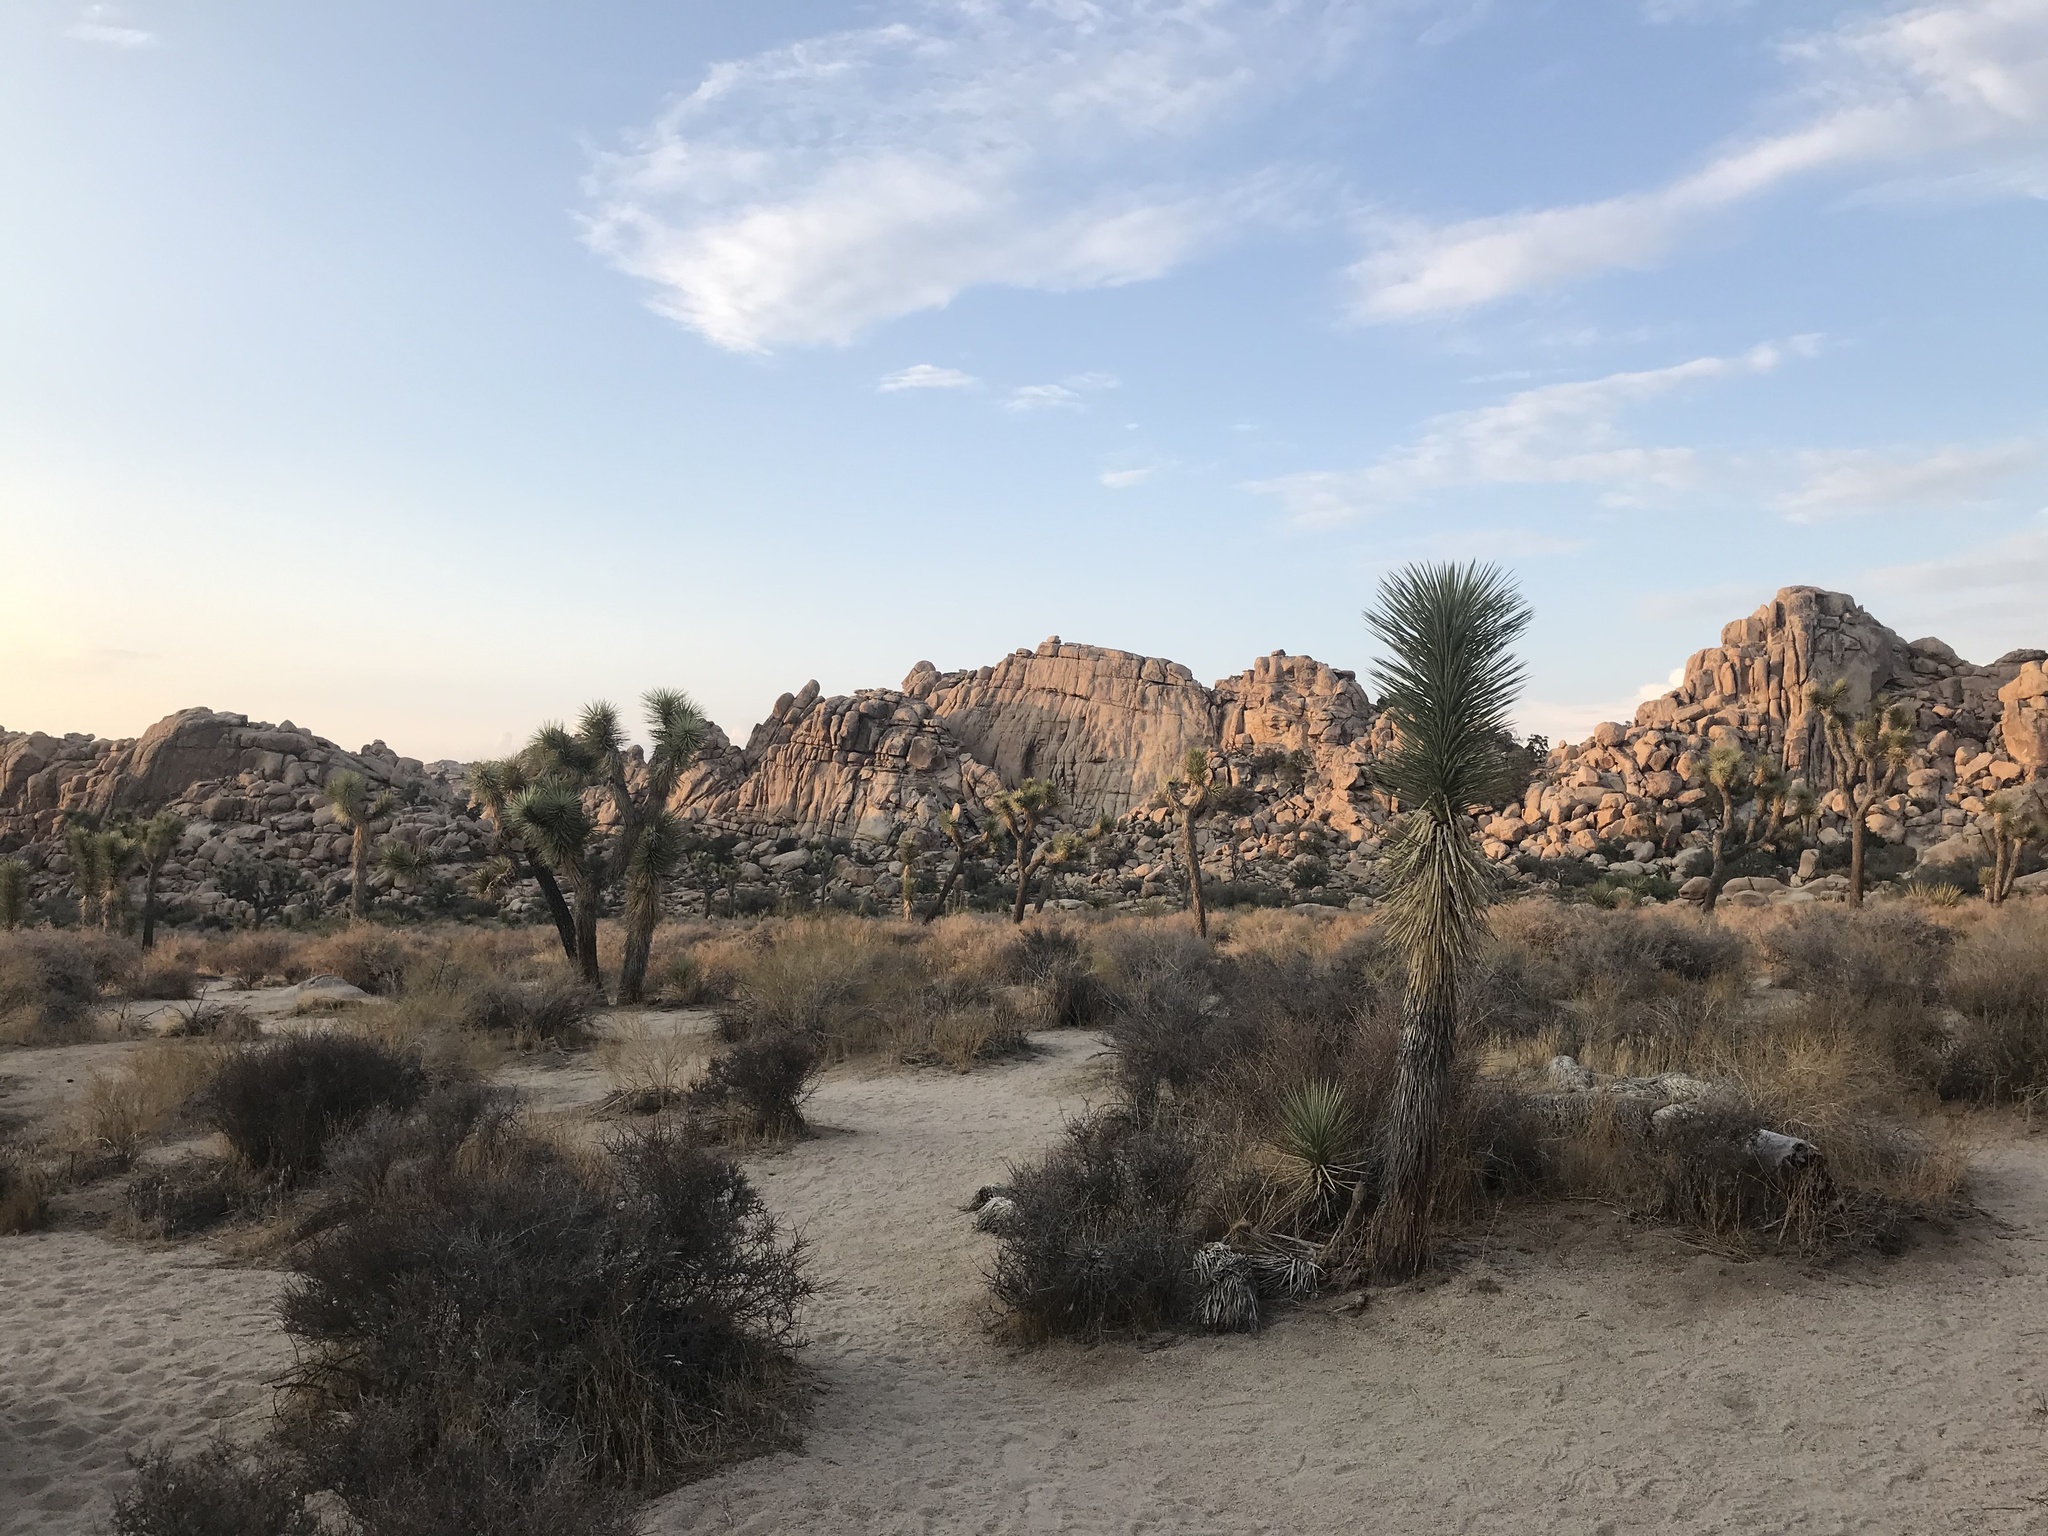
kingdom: Plantae
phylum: Tracheophyta
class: Liliopsida
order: Asparagales
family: Asparagaceae
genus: Yucca
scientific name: Yucca brevifolia
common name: Joshua tree
